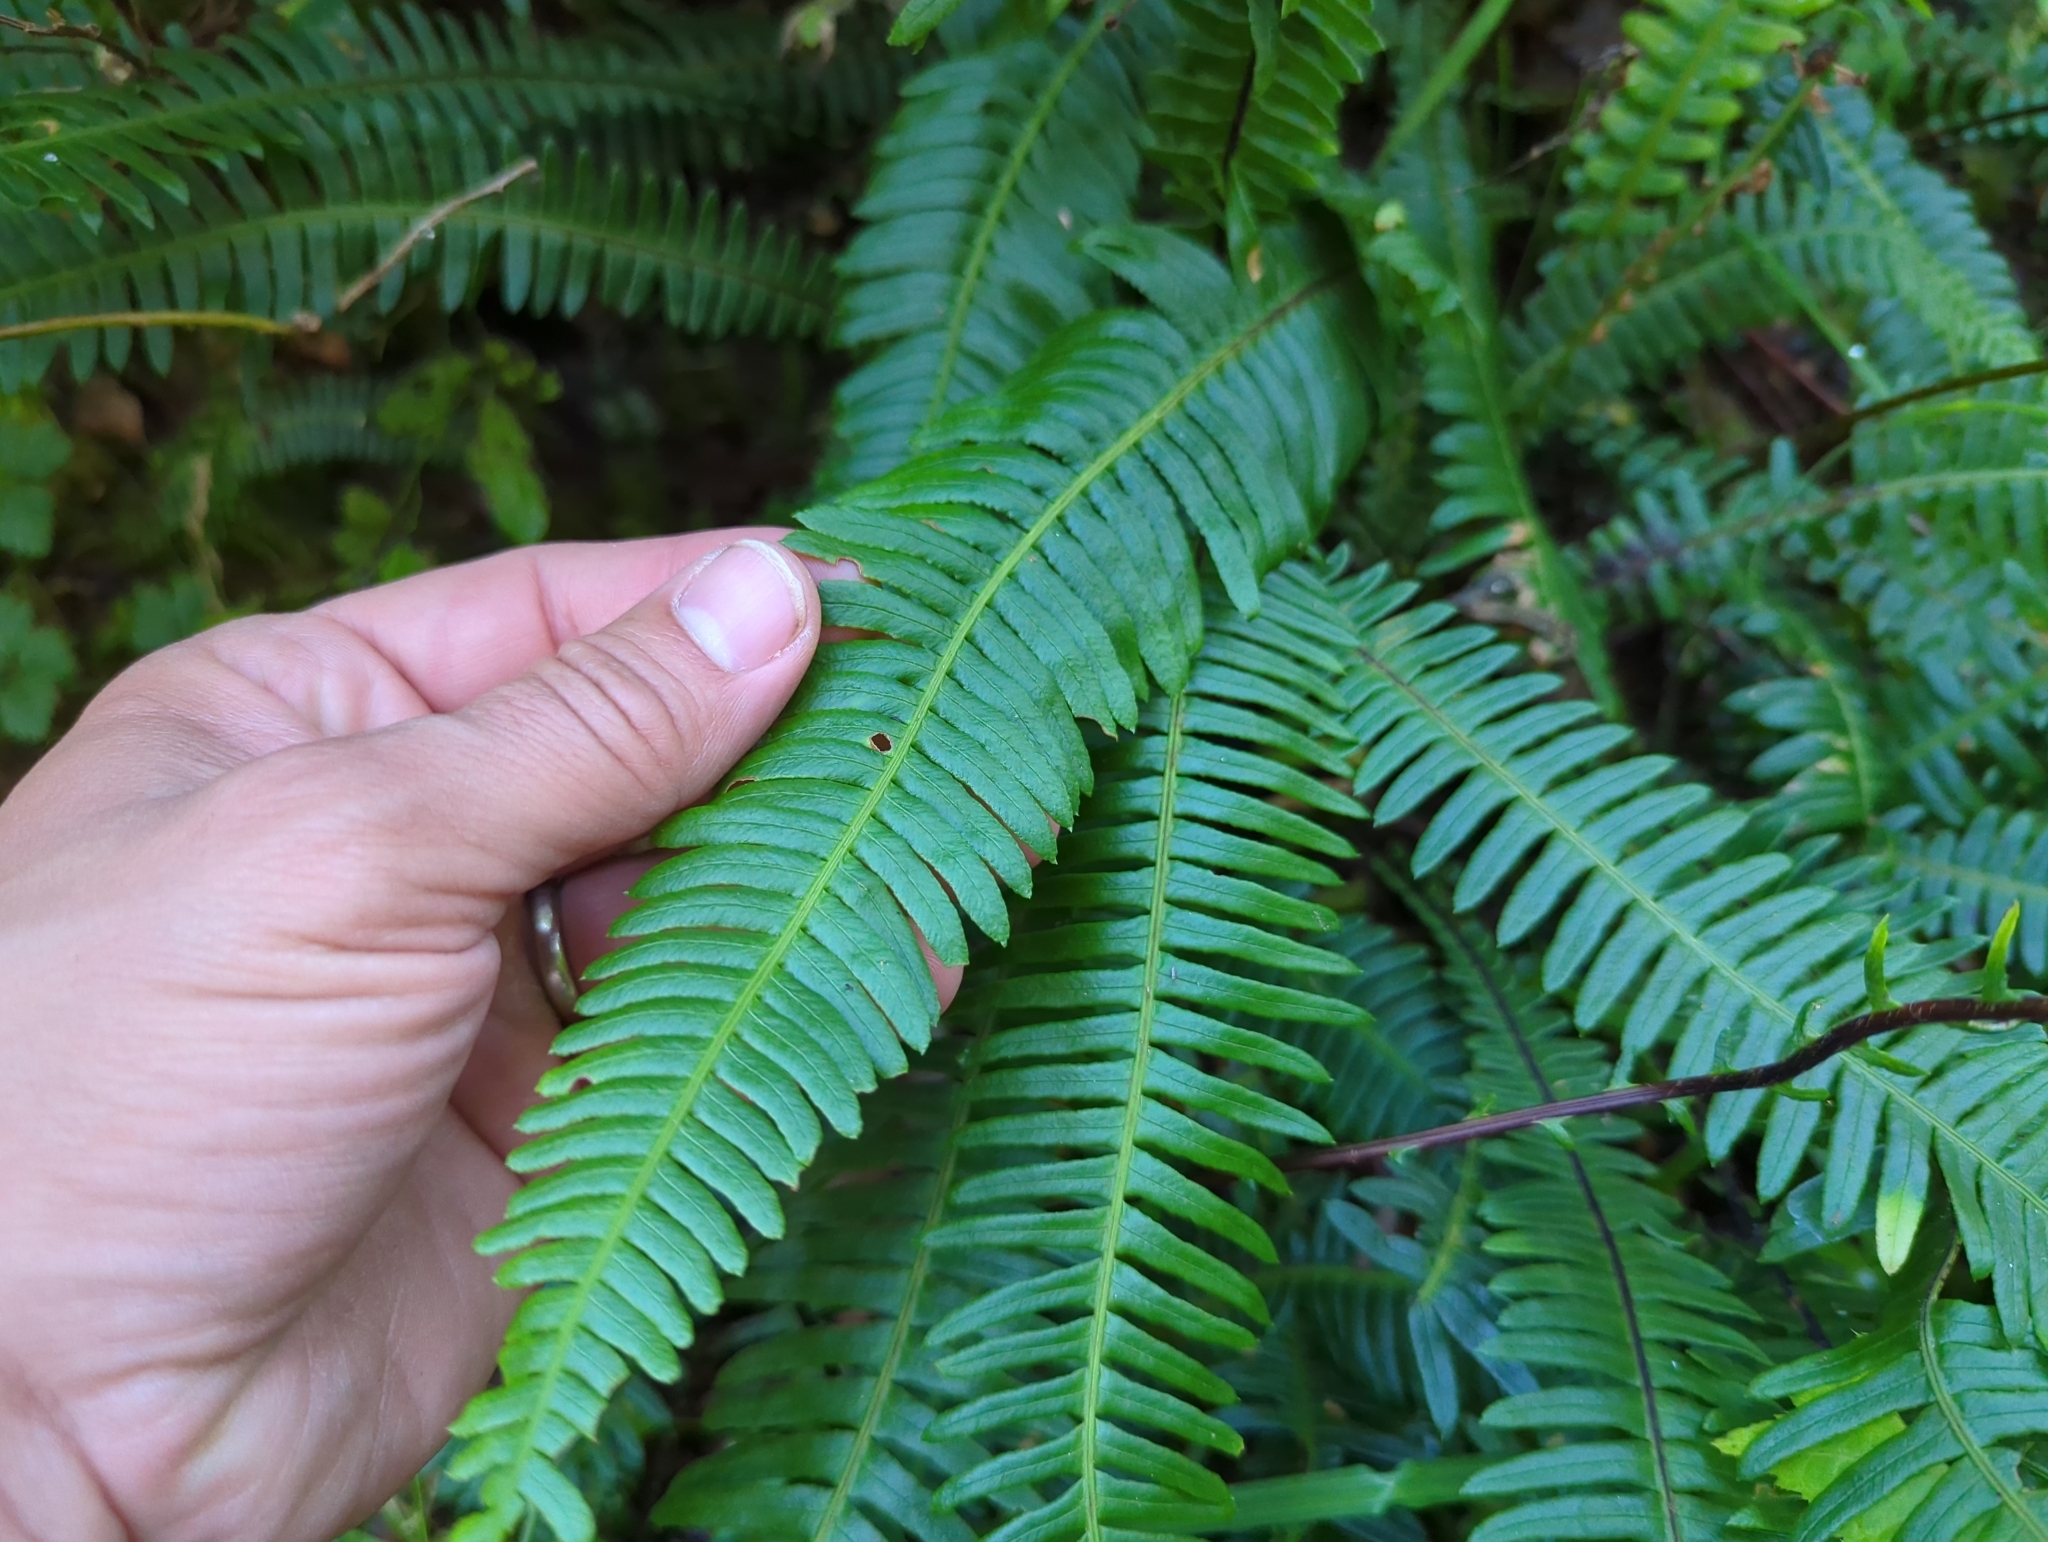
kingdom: Plantae
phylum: Tracheophyta
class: Polypodiopsida
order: Polypodiales
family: Blechnaceae
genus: Struthiopteris
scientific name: Struthiopteris spicant
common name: Deer fern
